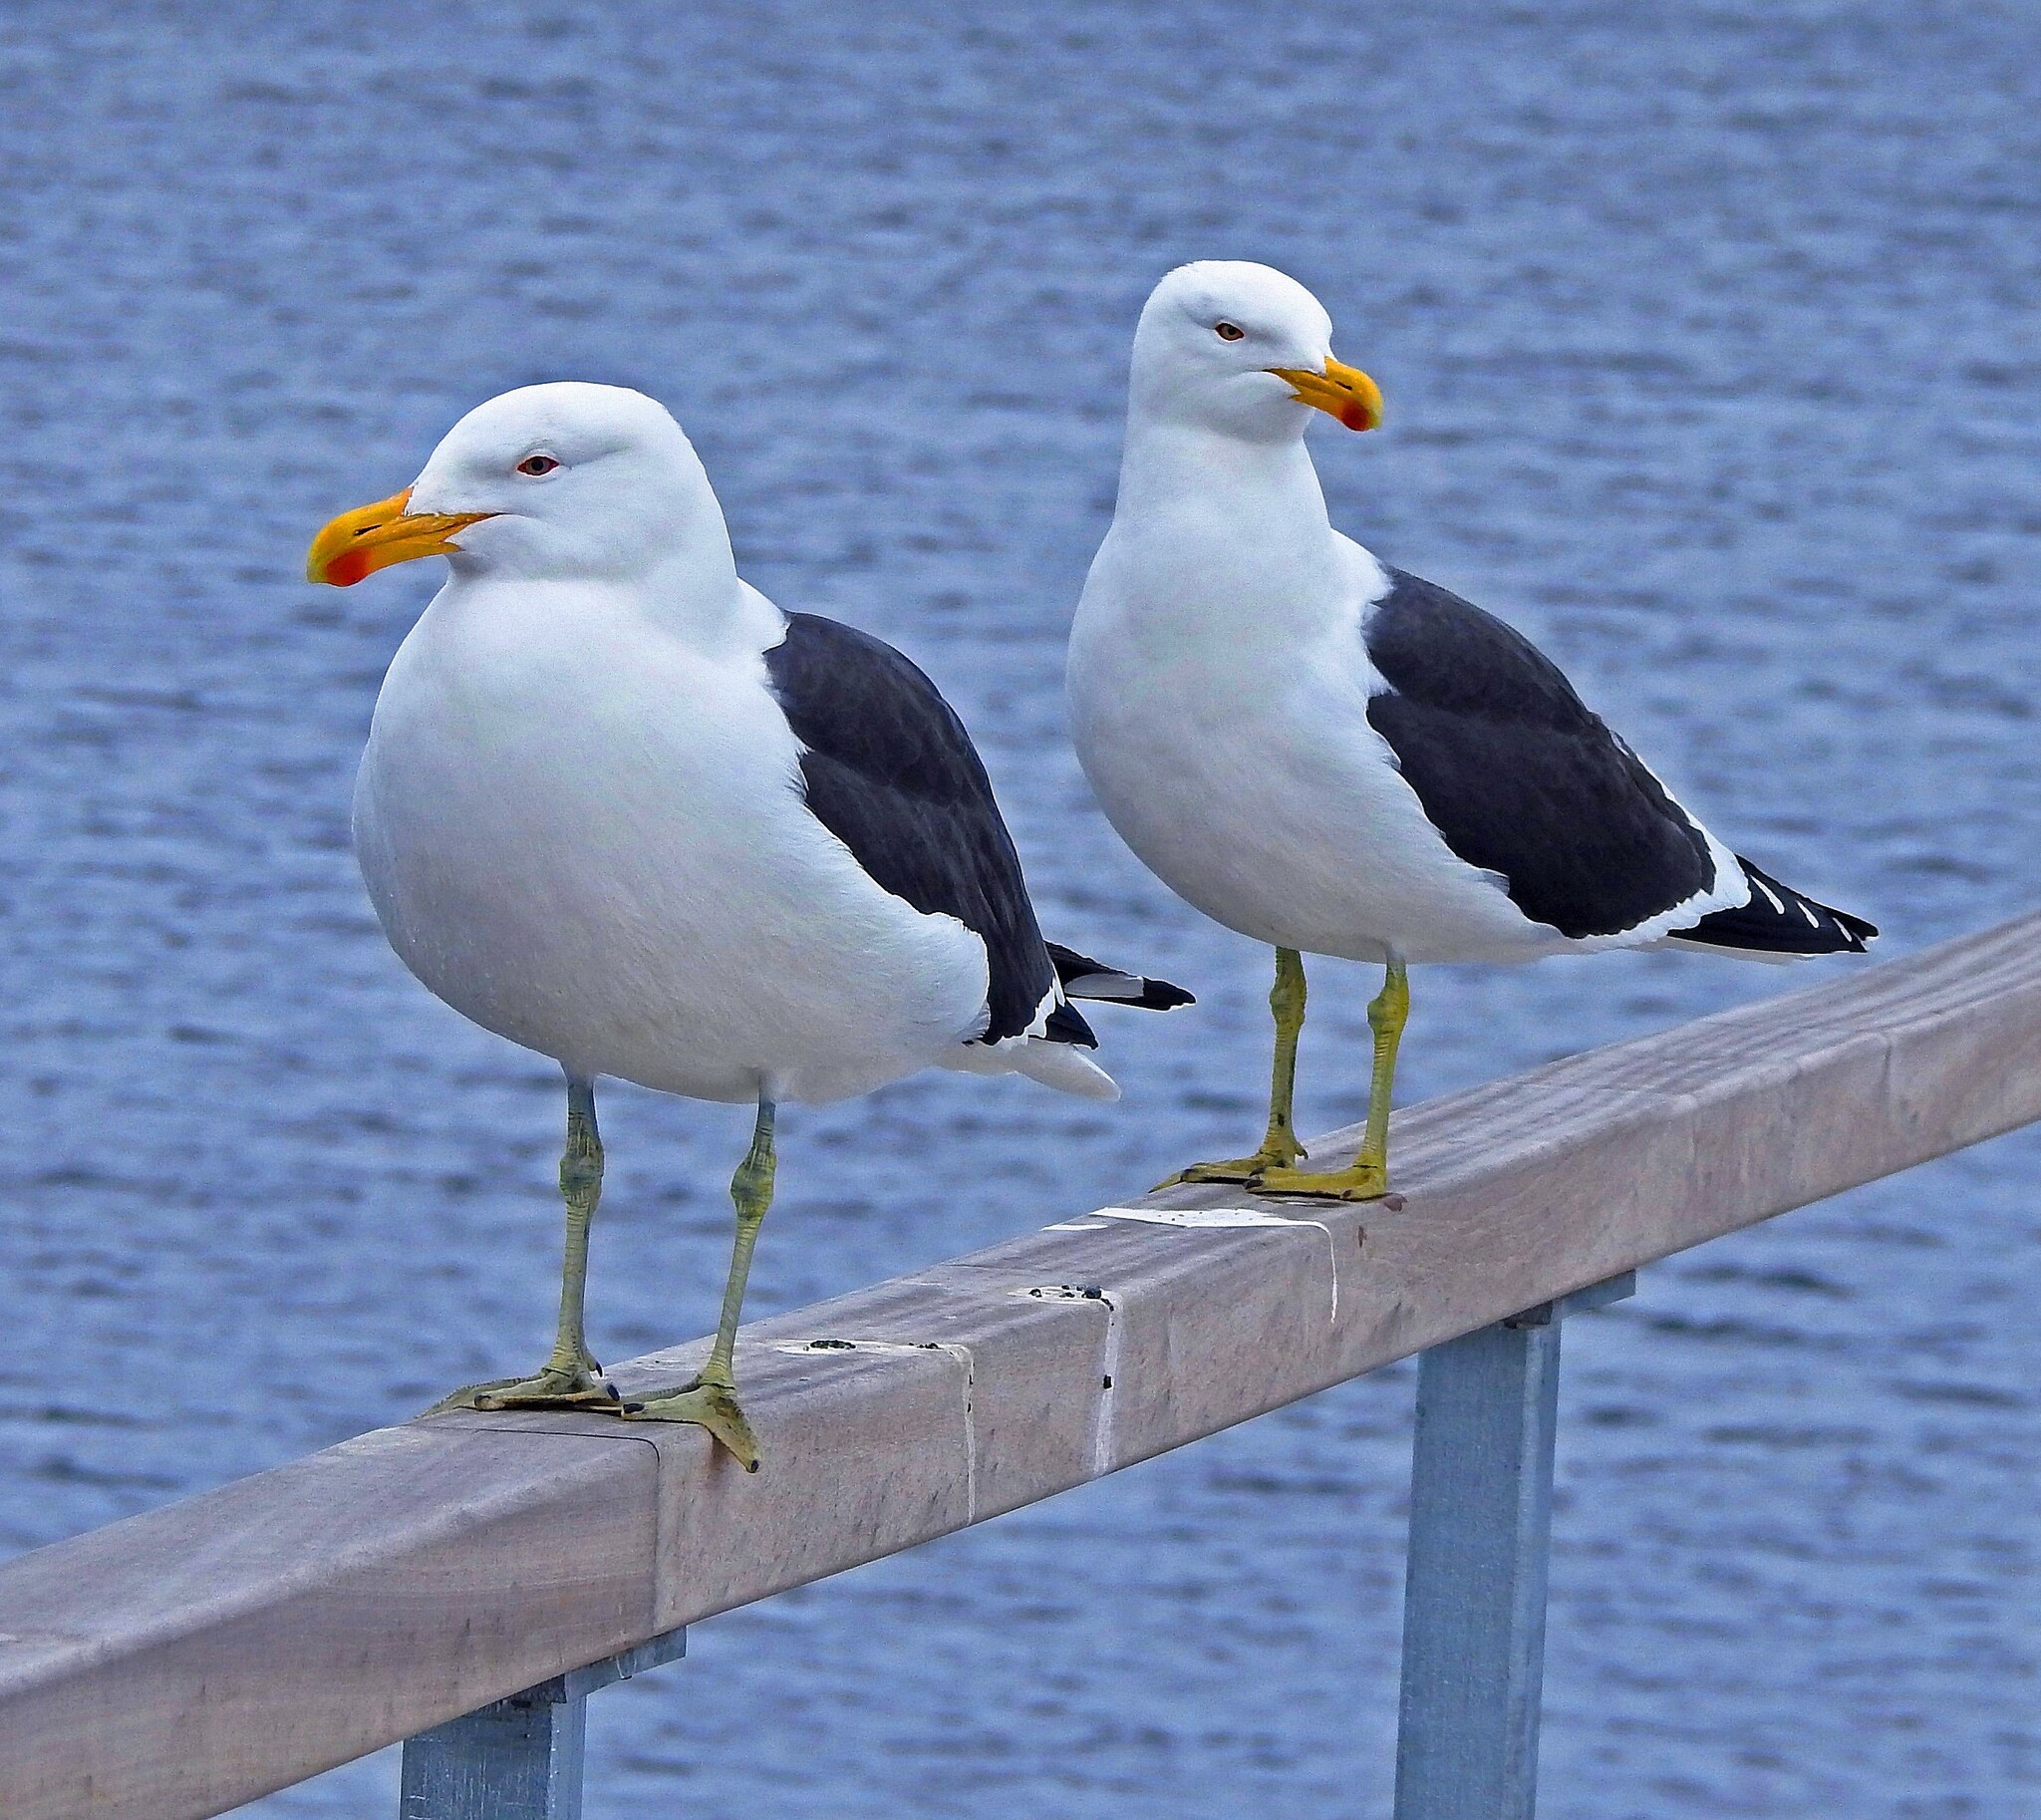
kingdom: Animalia
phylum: Chordata
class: Aves
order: Charadriiformes
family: Laridae
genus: Larus
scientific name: Larus dominicanus
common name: Kelp gull
